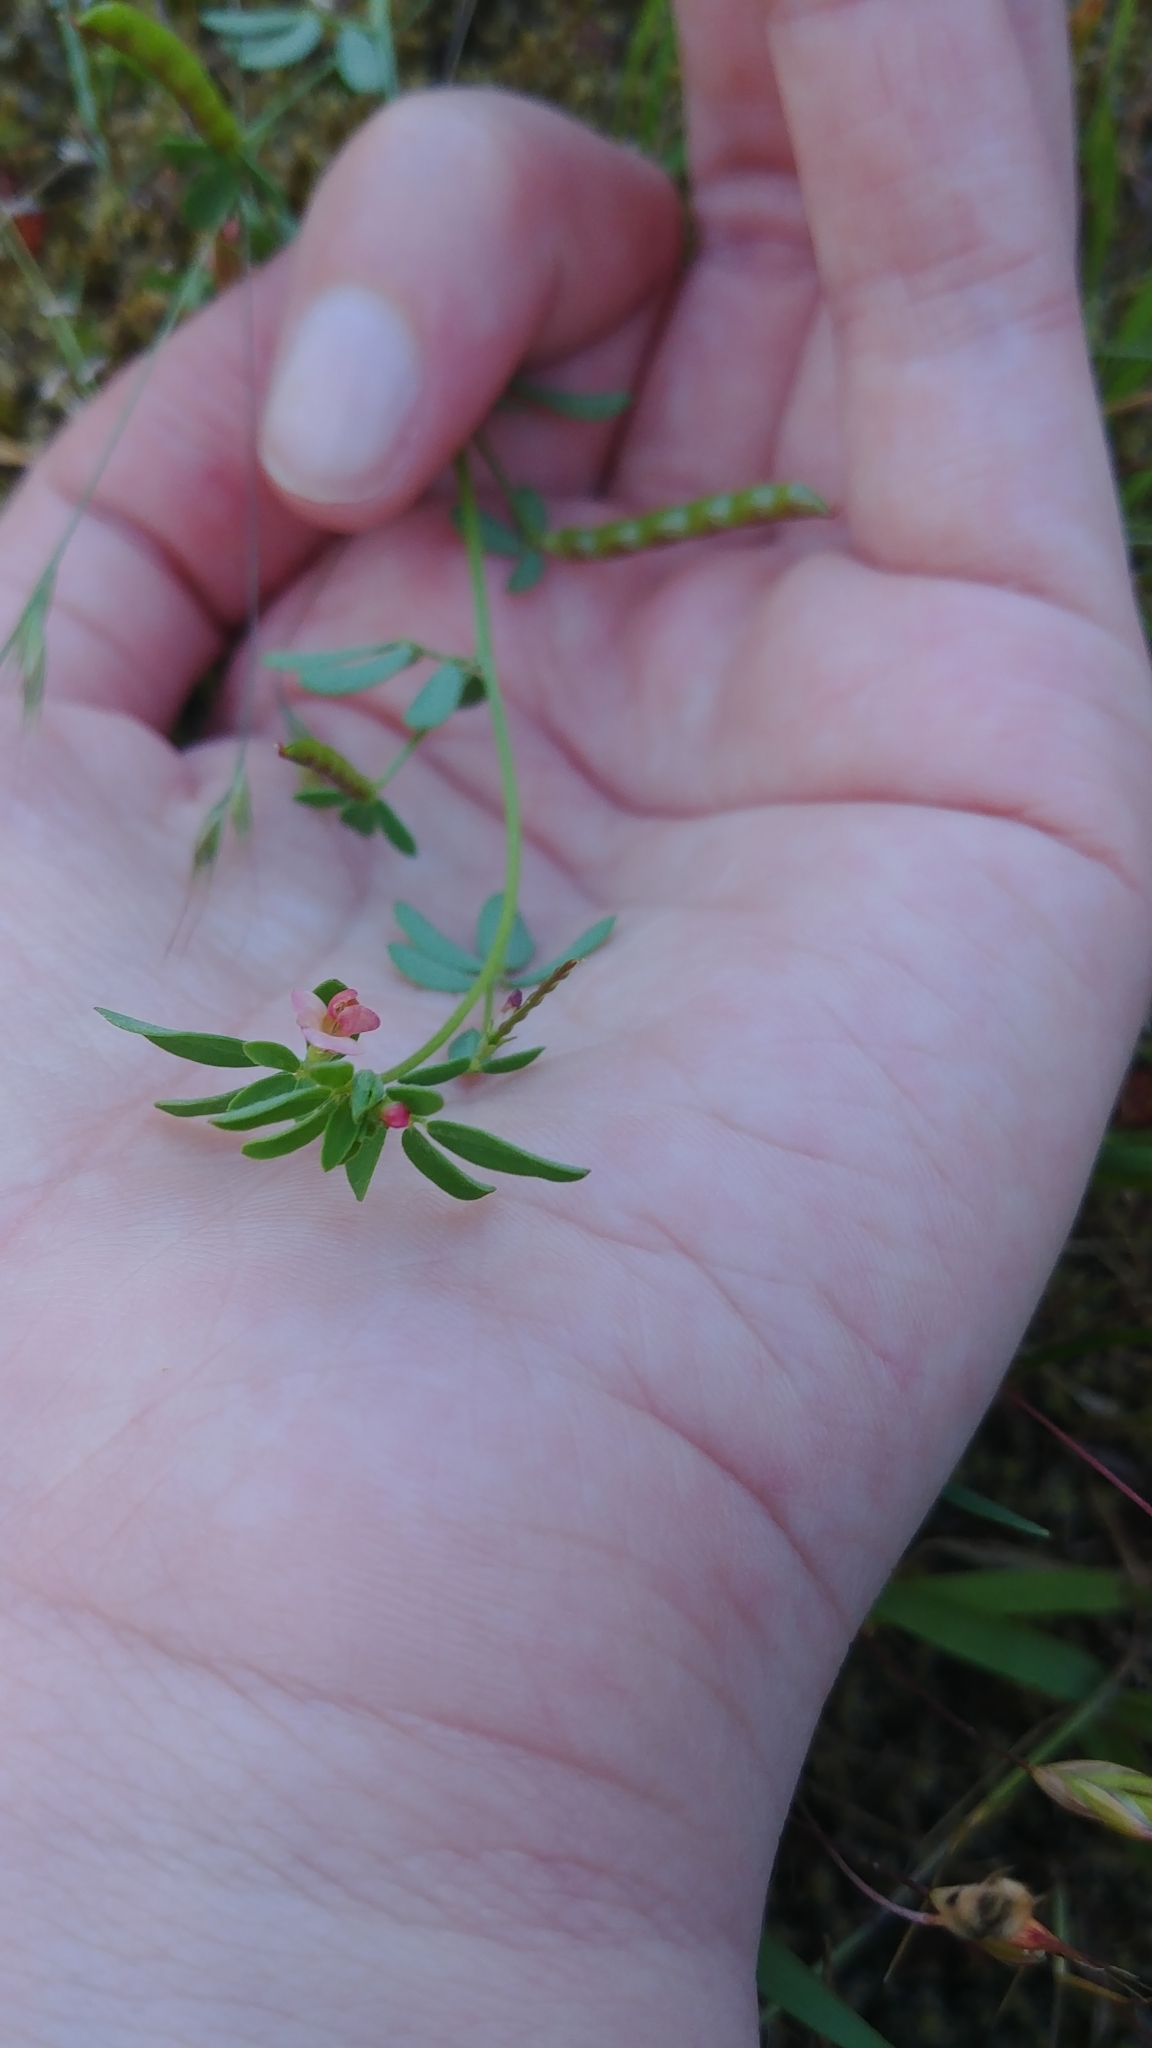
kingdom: Plantae
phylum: Tracheophyta
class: Magnoliopsida
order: Fabales
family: Fabaceae
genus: Acmispon
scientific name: Acmispon parviflorus
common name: Desert deer-vetch
